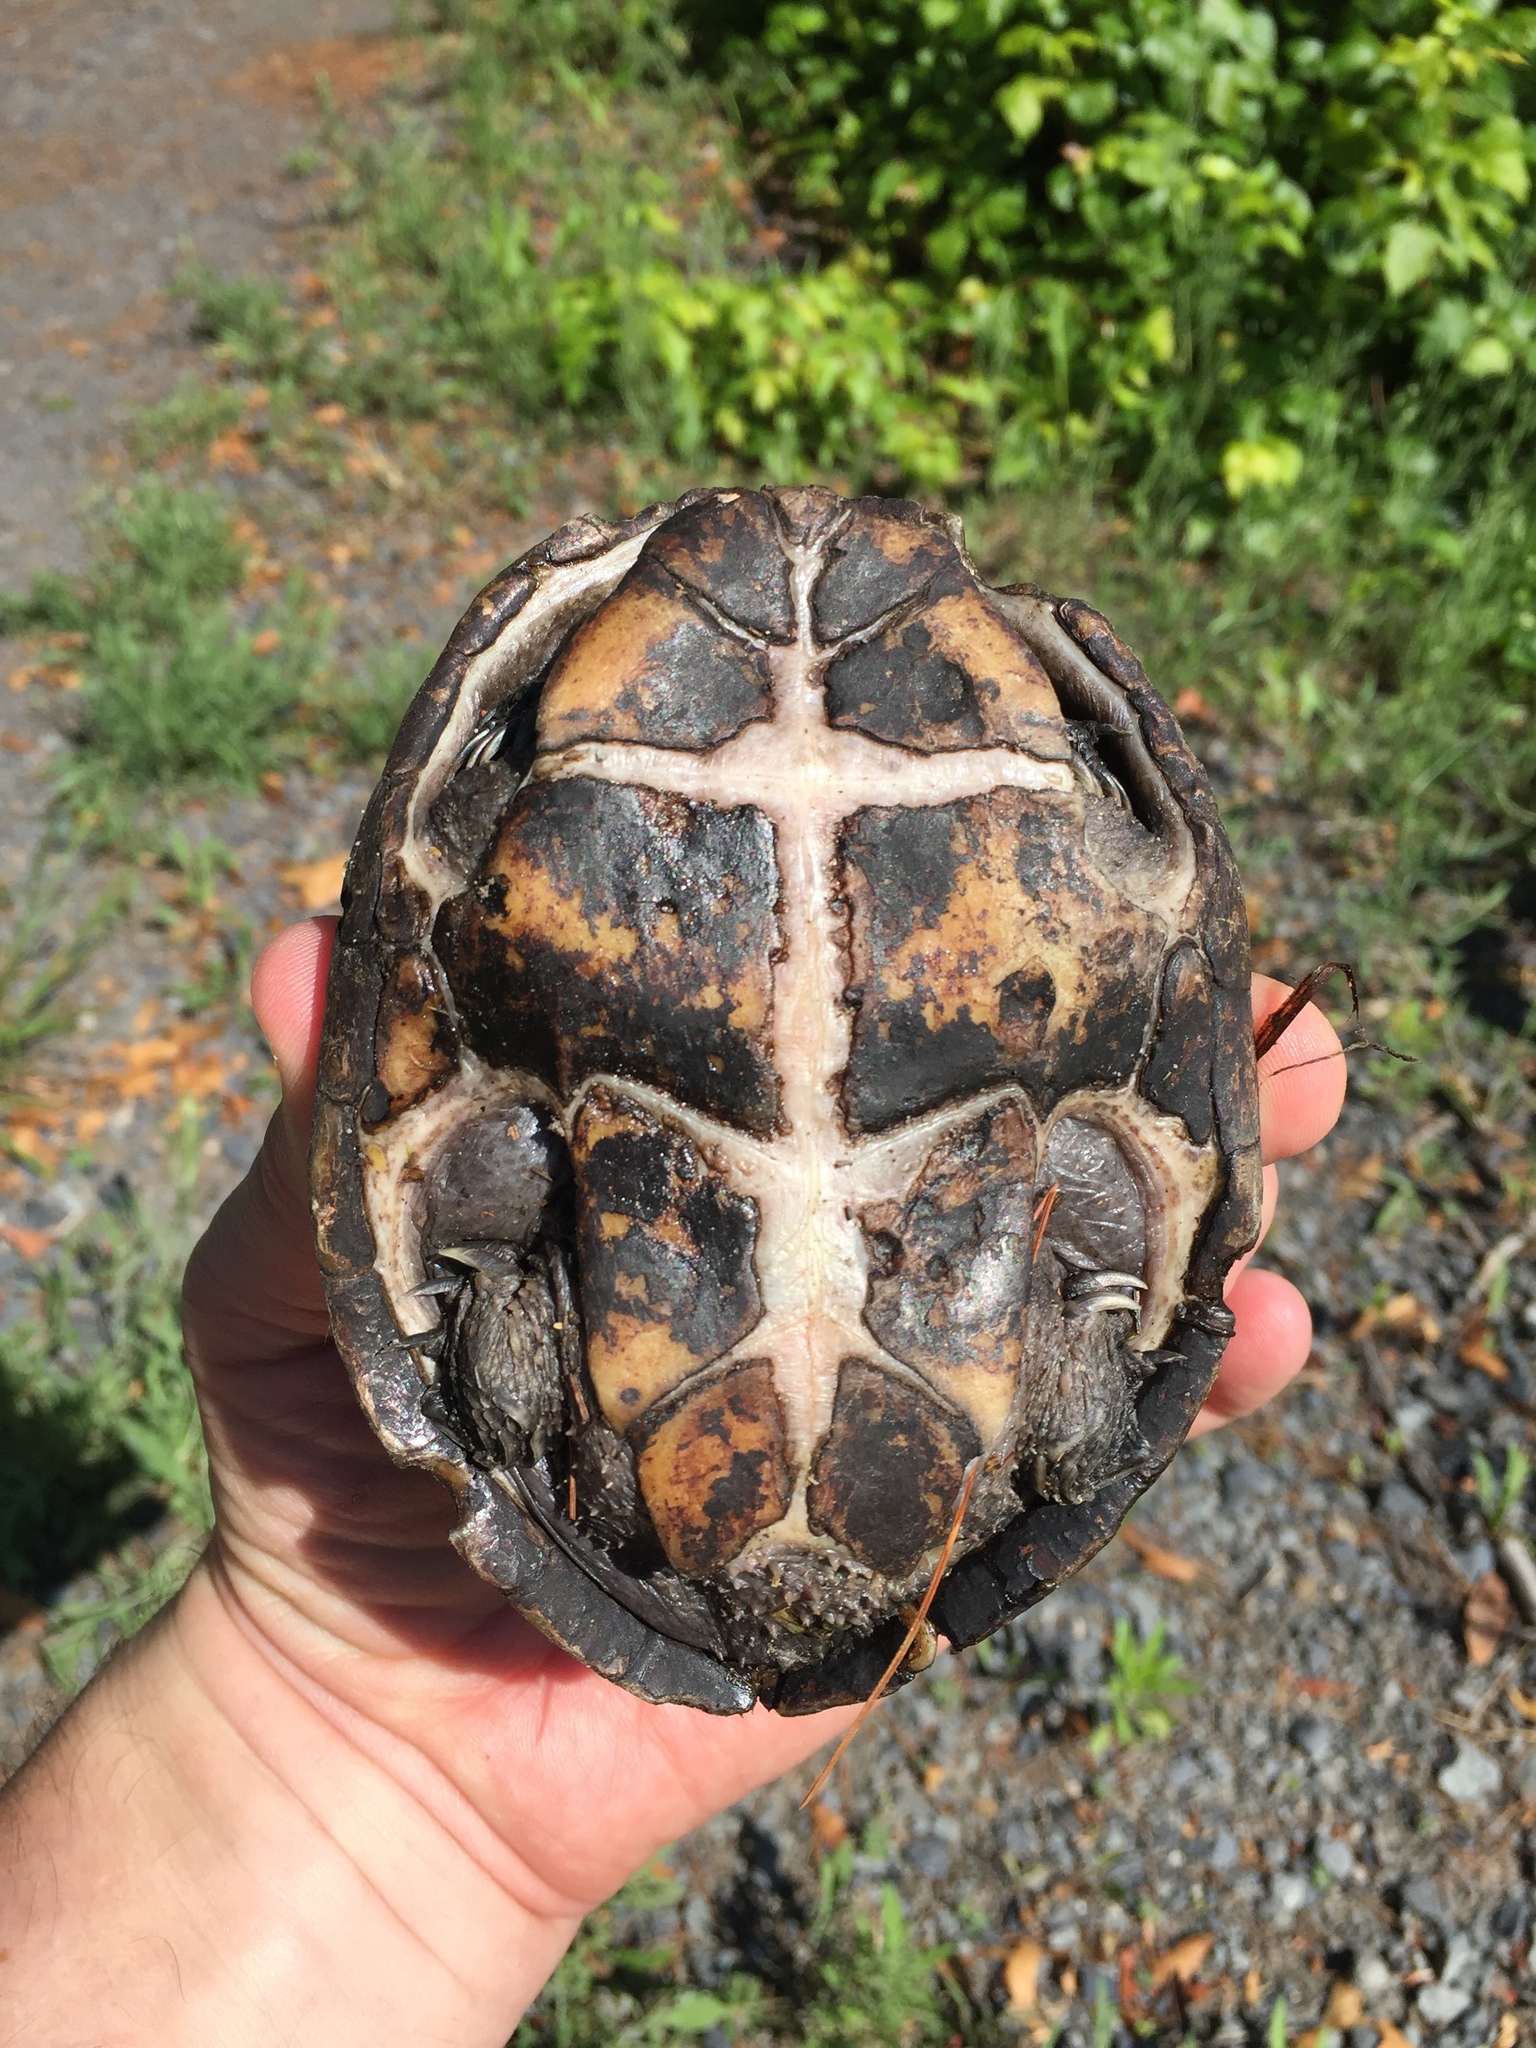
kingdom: Animalia
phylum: Chordata
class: Testudines
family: Kinosternidae
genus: Sternotherus
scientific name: Sternotherus odoratus
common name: Common musk turtle
